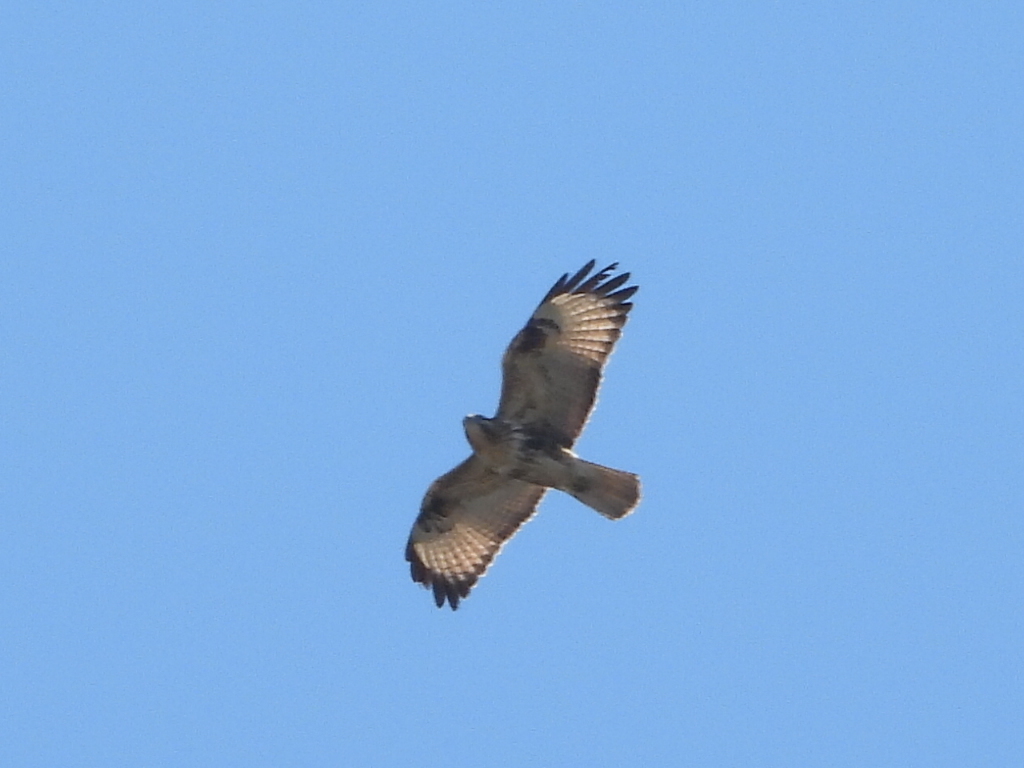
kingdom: Animalia
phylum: Chordata
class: Aves
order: Accipitriformes
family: Accipitridae
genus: Buteo
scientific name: Buteo japonicus
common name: Eastern buzzard
